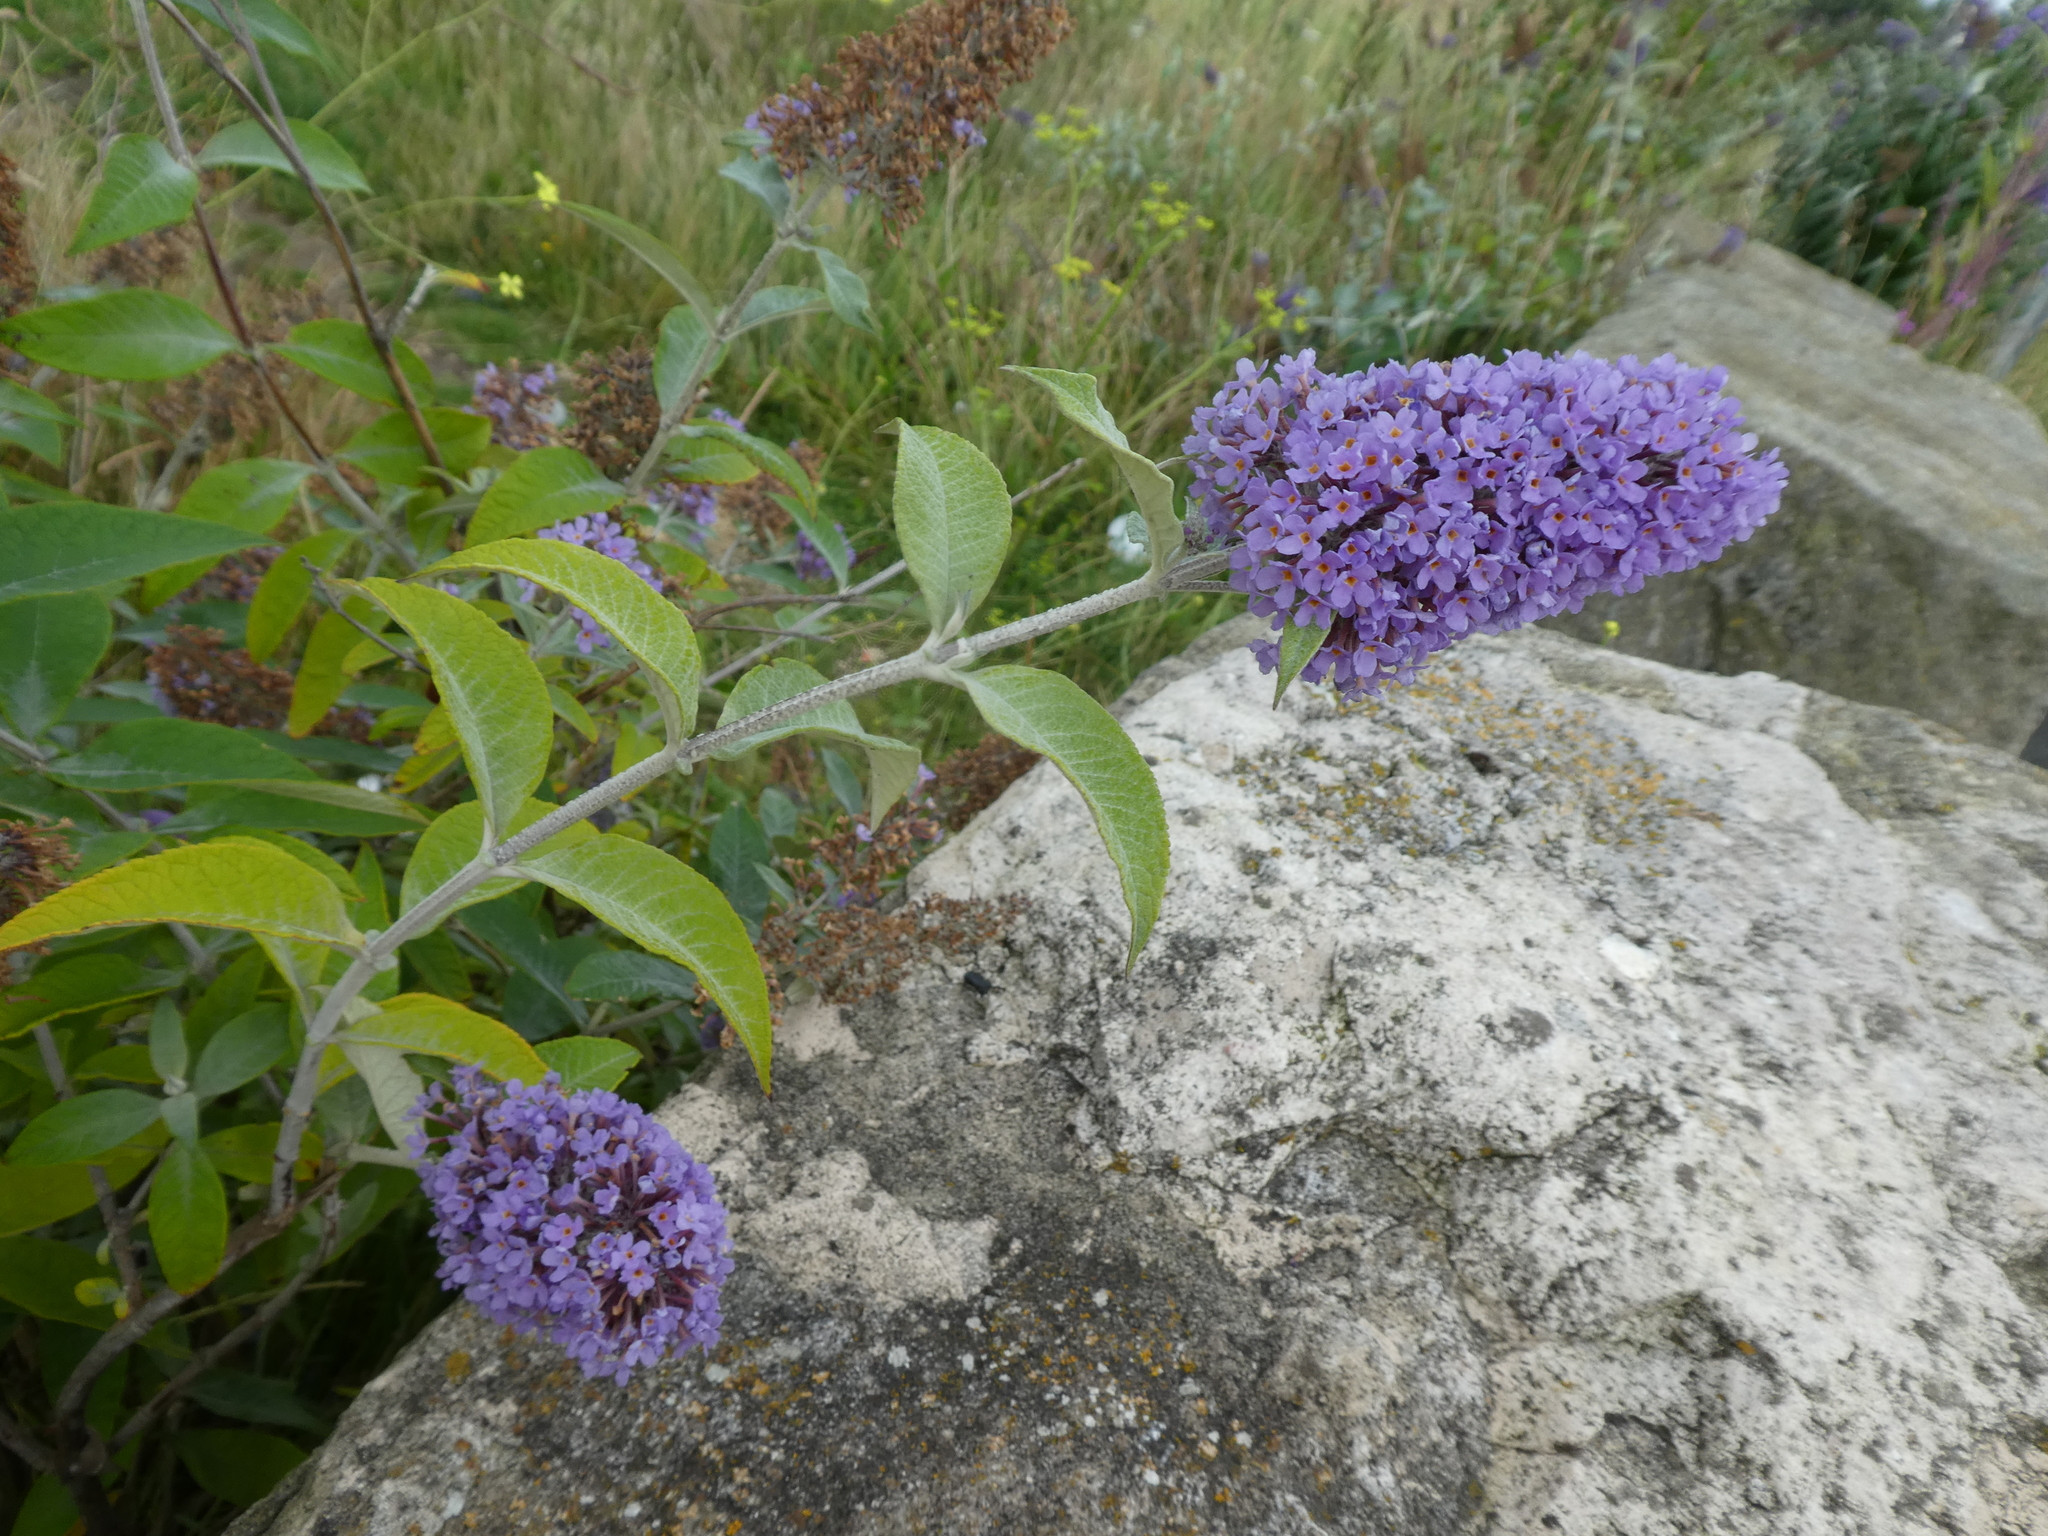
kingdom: Plantae
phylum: Tracheophyta
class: Magnoliopsida
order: Lamiales
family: Scrophulariaceae
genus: Buddleja
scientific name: Buddleja davidii
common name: Butterfly-bush
